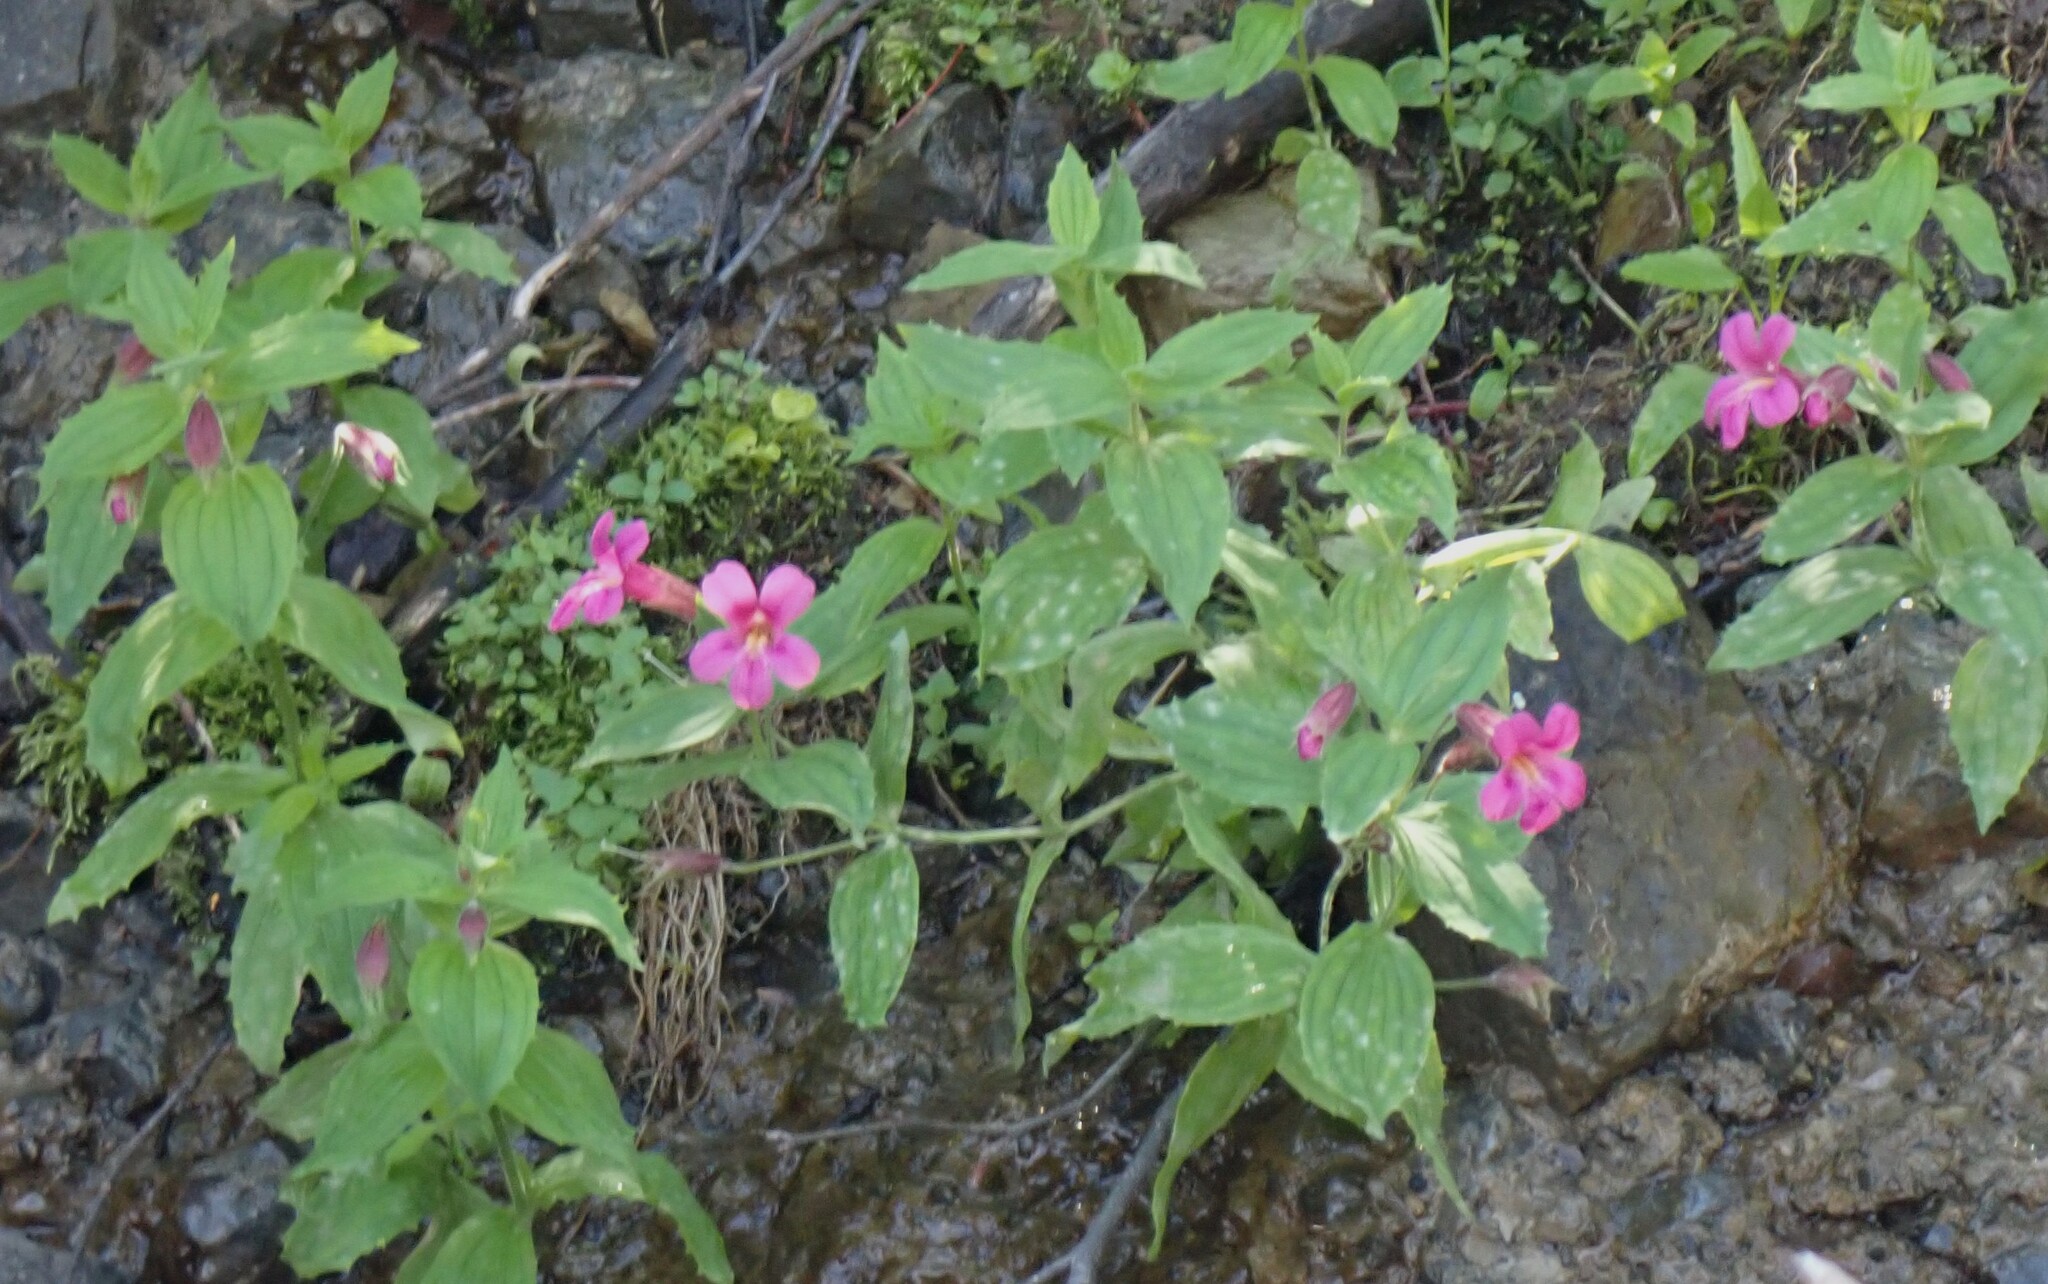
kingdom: Plantae
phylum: Tracheophyta
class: Magnoliopsida
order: Lamiales
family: Phrymaceae
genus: Erythranthe
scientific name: Erythranthe lewisii
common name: Lewis's monkey-flower
